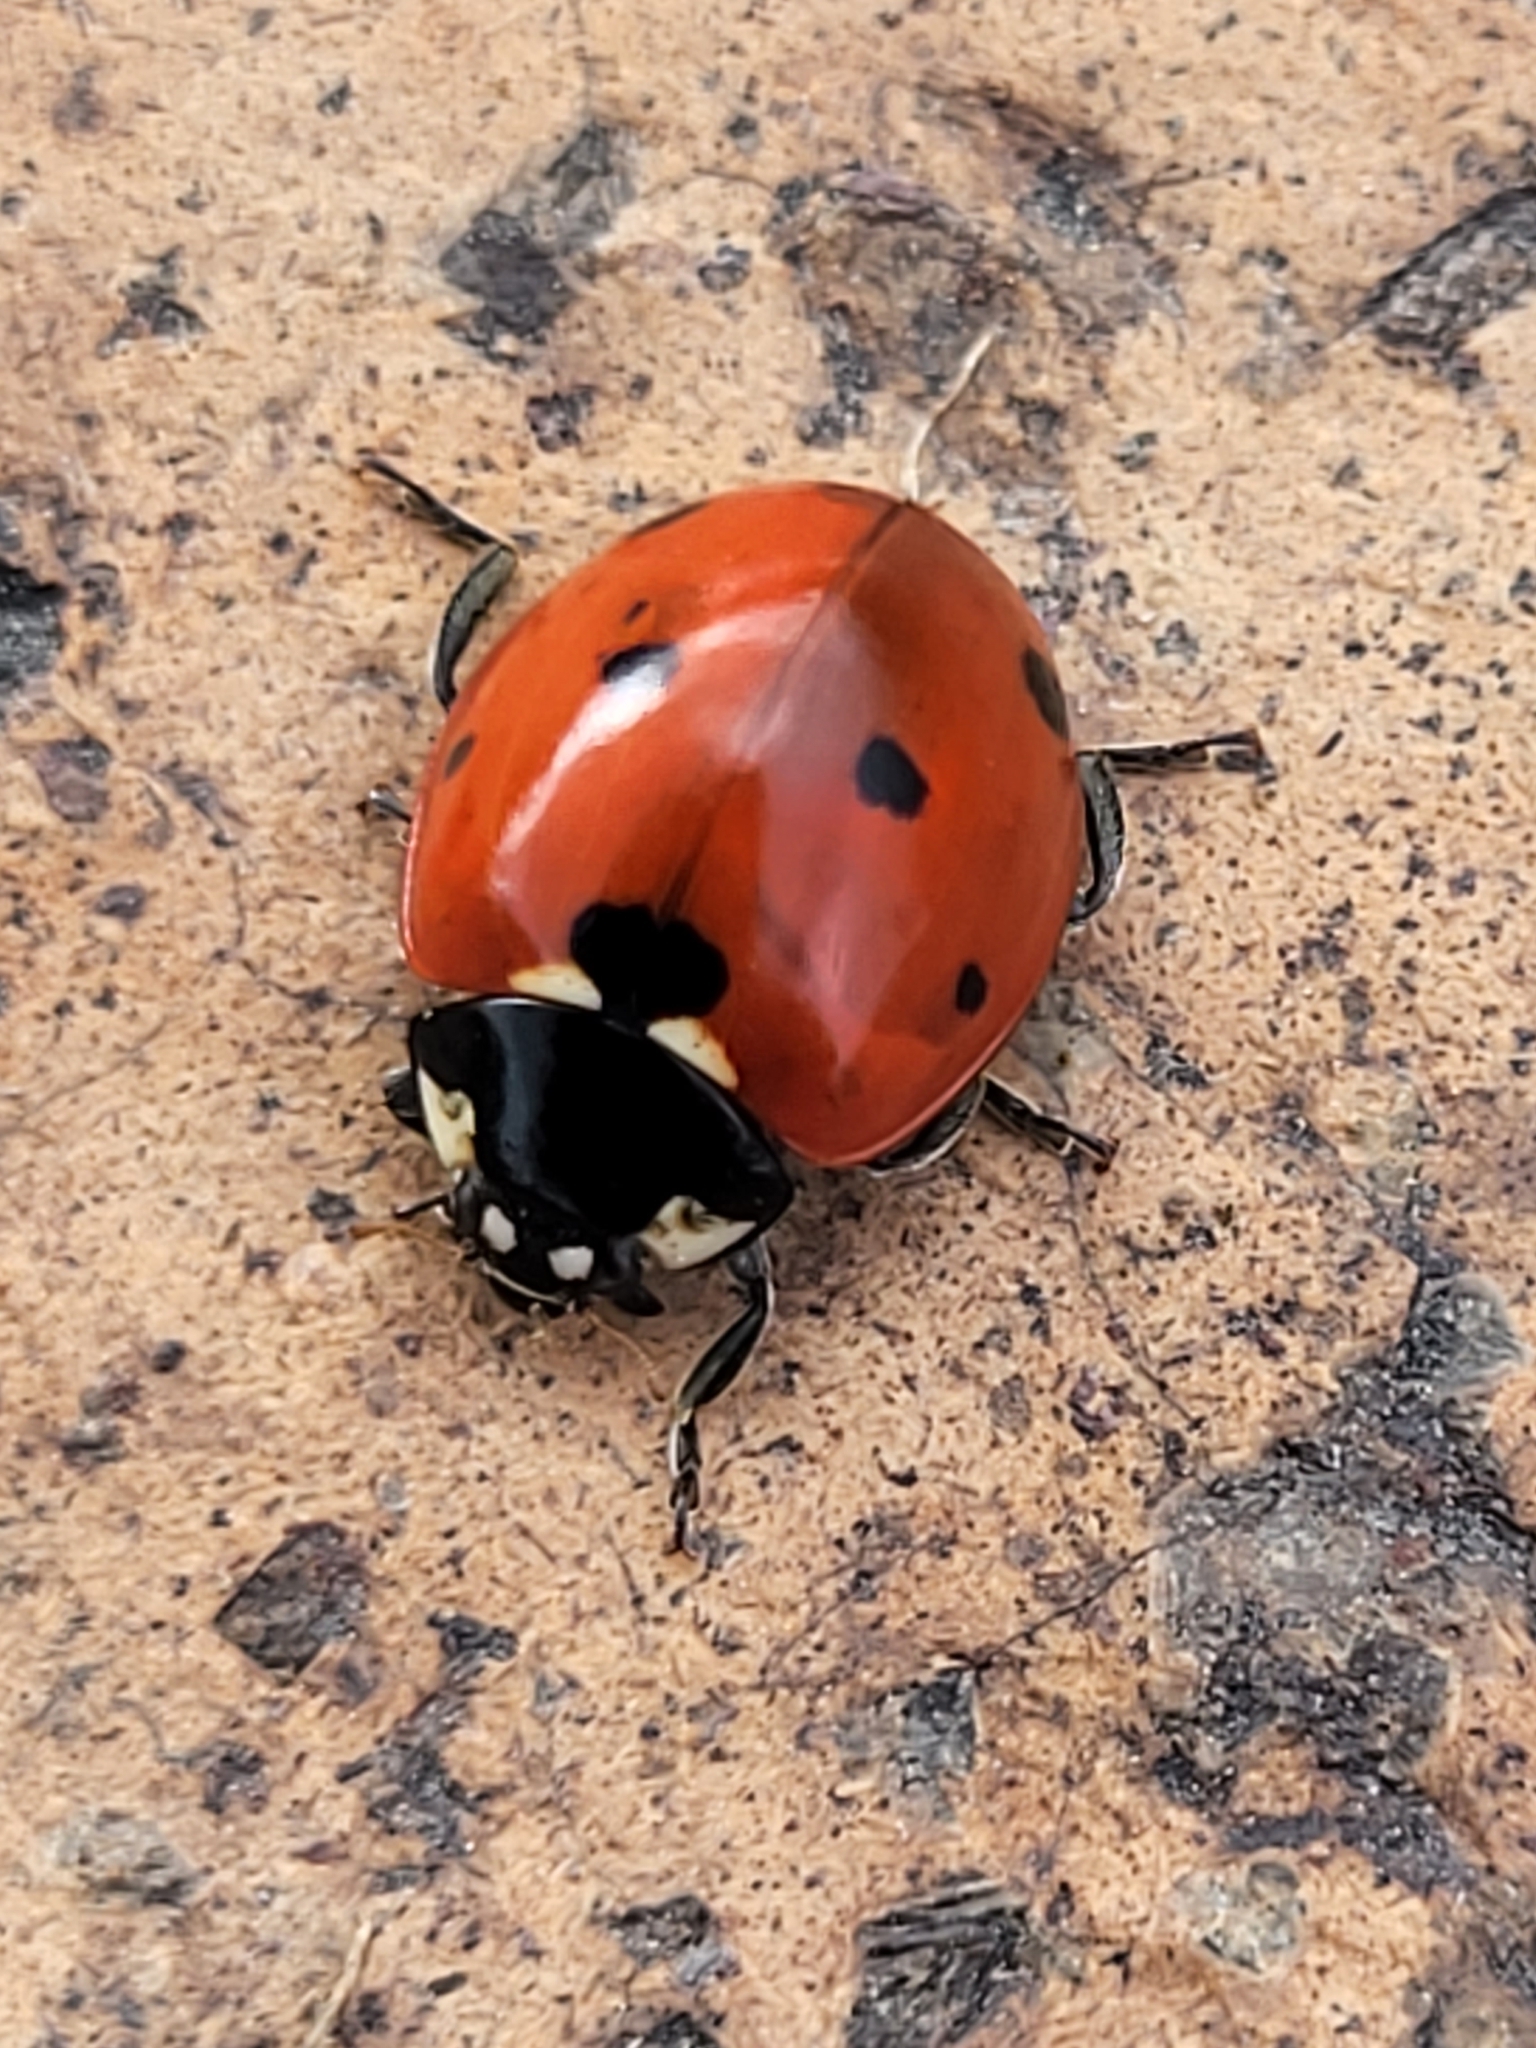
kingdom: Animalia
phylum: Arthropoda
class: Insecta
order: Coleoptera
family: Coccinellidae
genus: Coccinella
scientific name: Coccinella septempunctata
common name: Sevenspotted lady beetle
